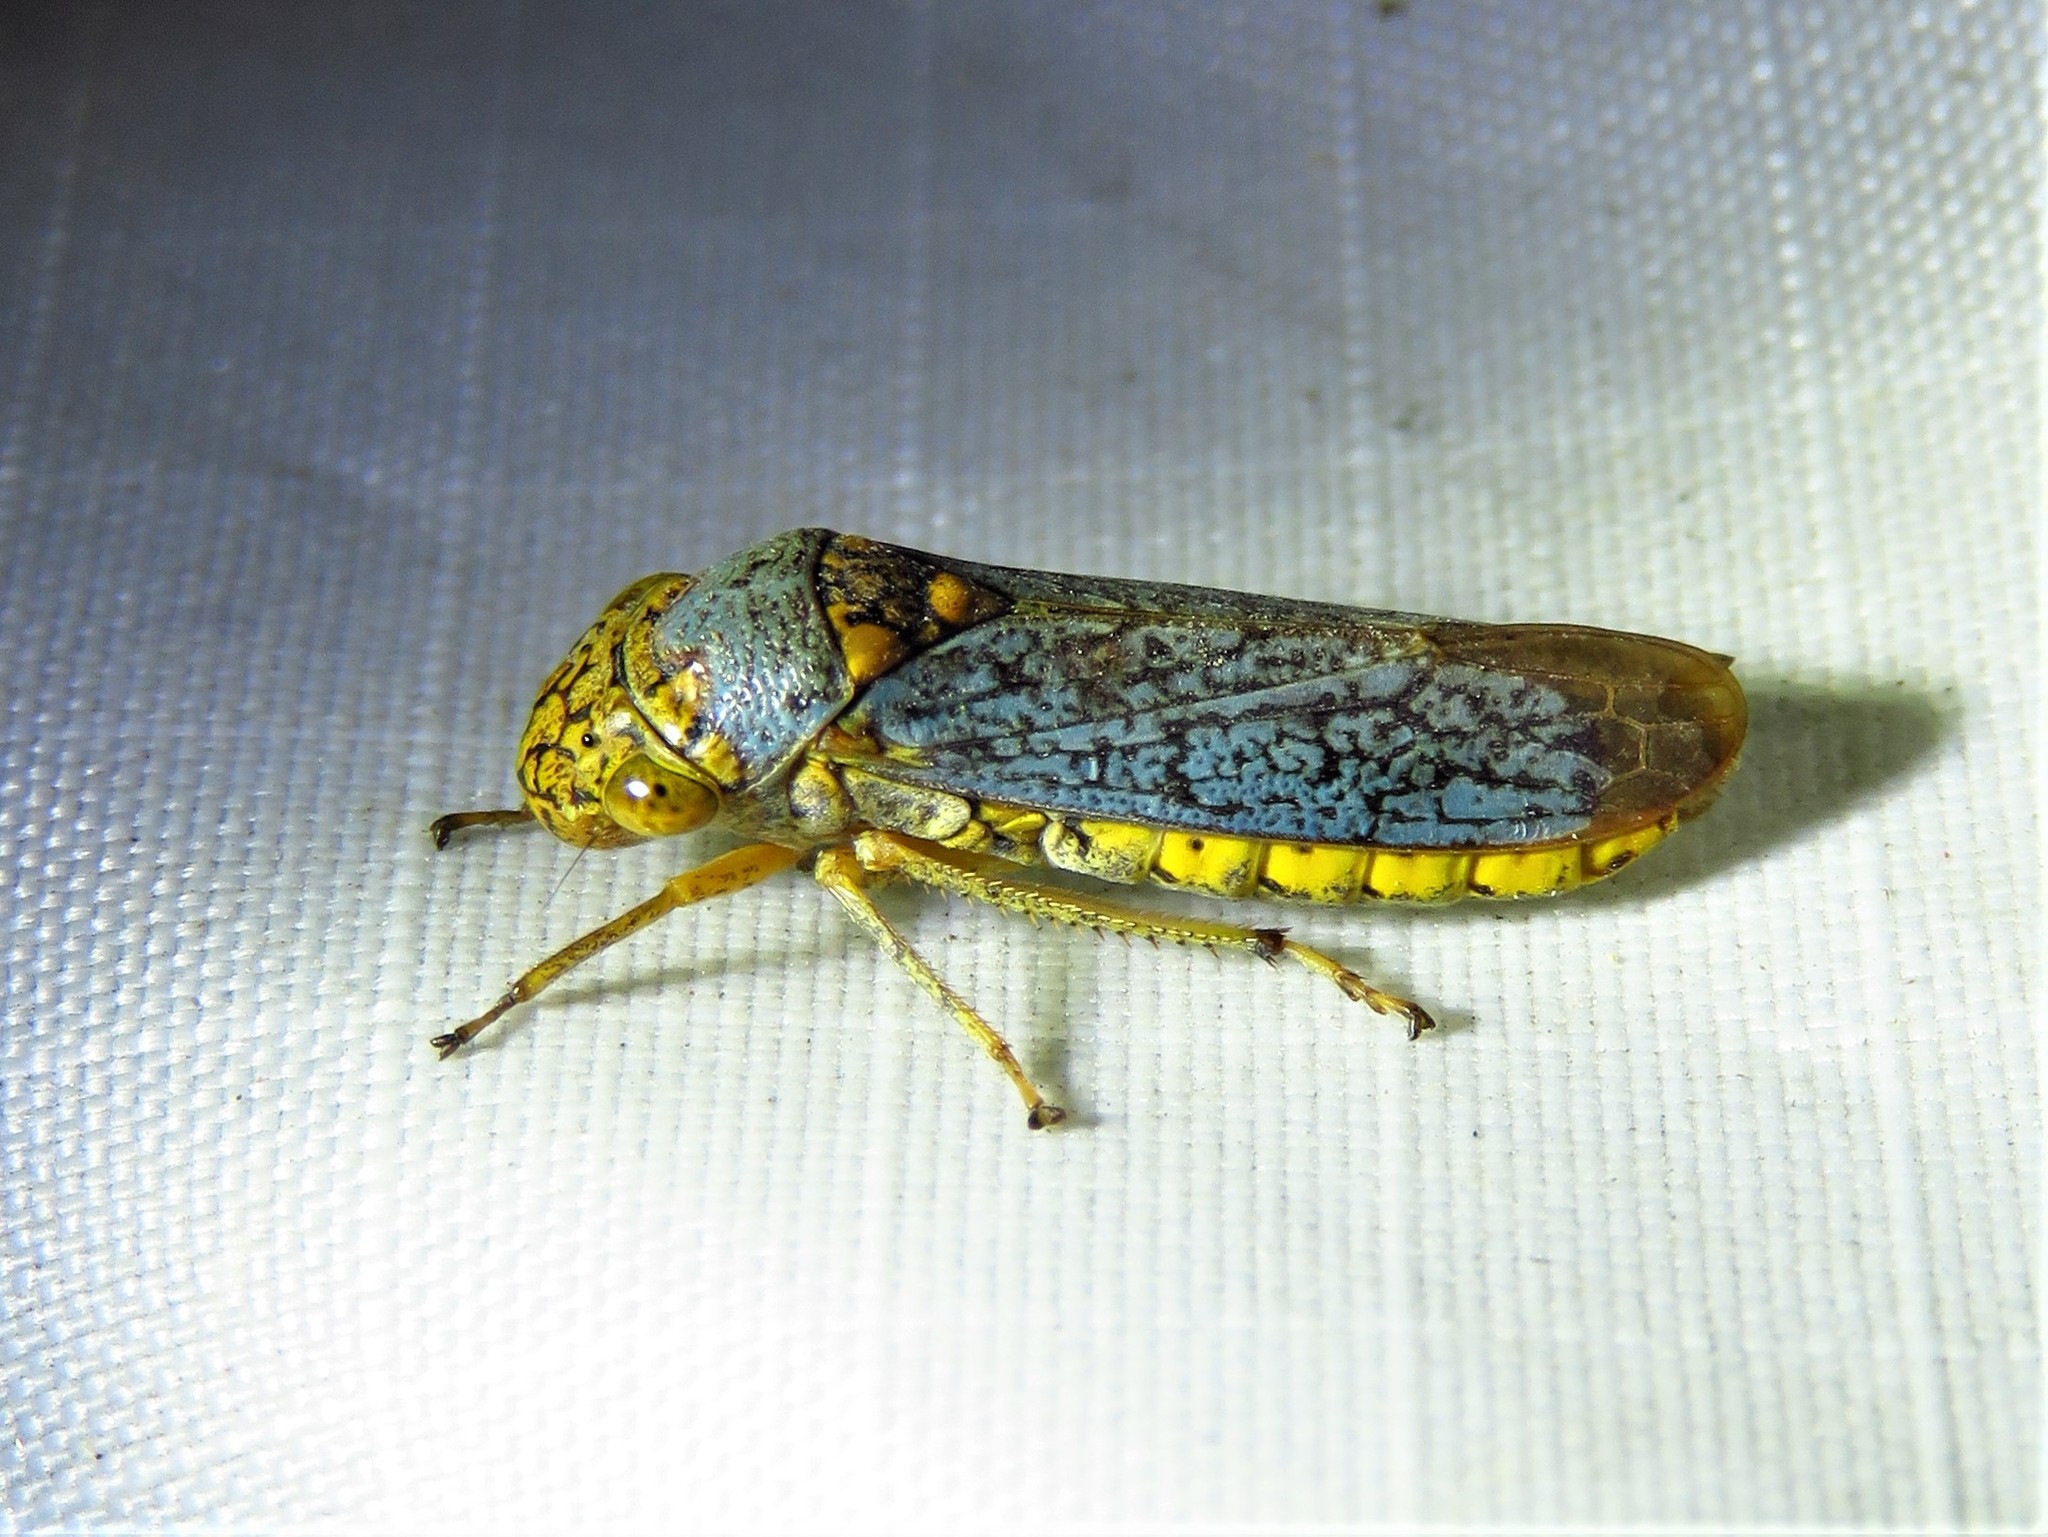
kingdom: Animalia
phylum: Arthropoda
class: Insecta
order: Hemiptera
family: Cicadellidae
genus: Oncometopia
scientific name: Oncometopia orbona
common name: Broad-headed sharpshooter
